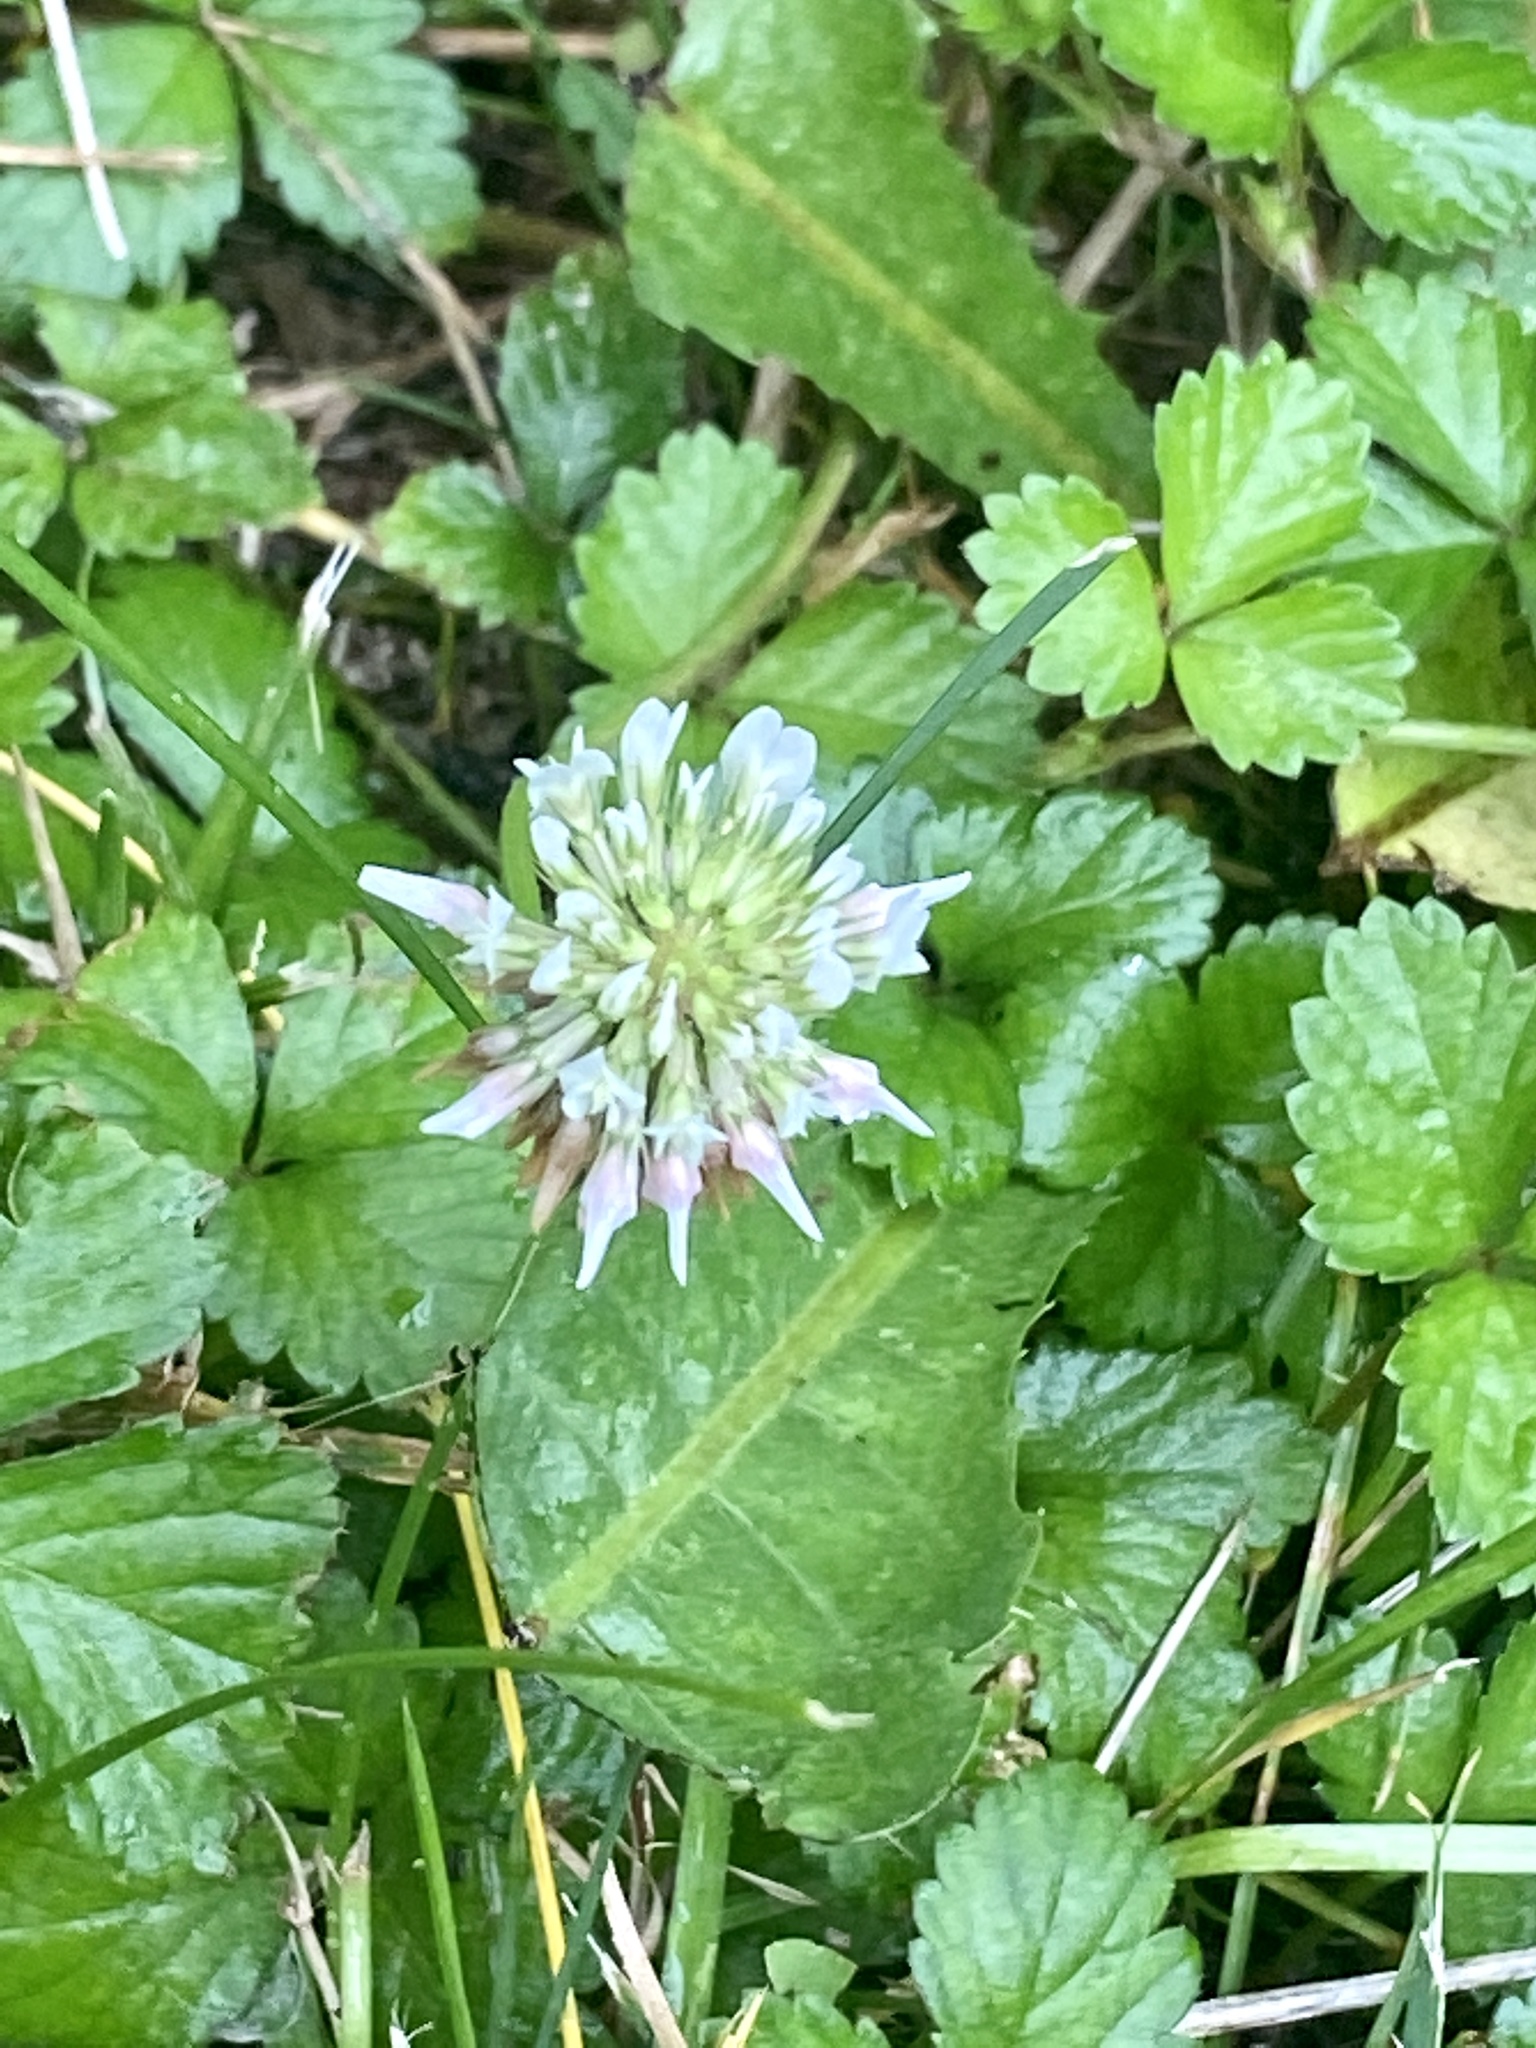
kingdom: Plantae
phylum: Tracheophyta
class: Magnoliopsida
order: Fabales
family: Fabaceae
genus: Trifolium
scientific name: Trifolium repens
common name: White clover
